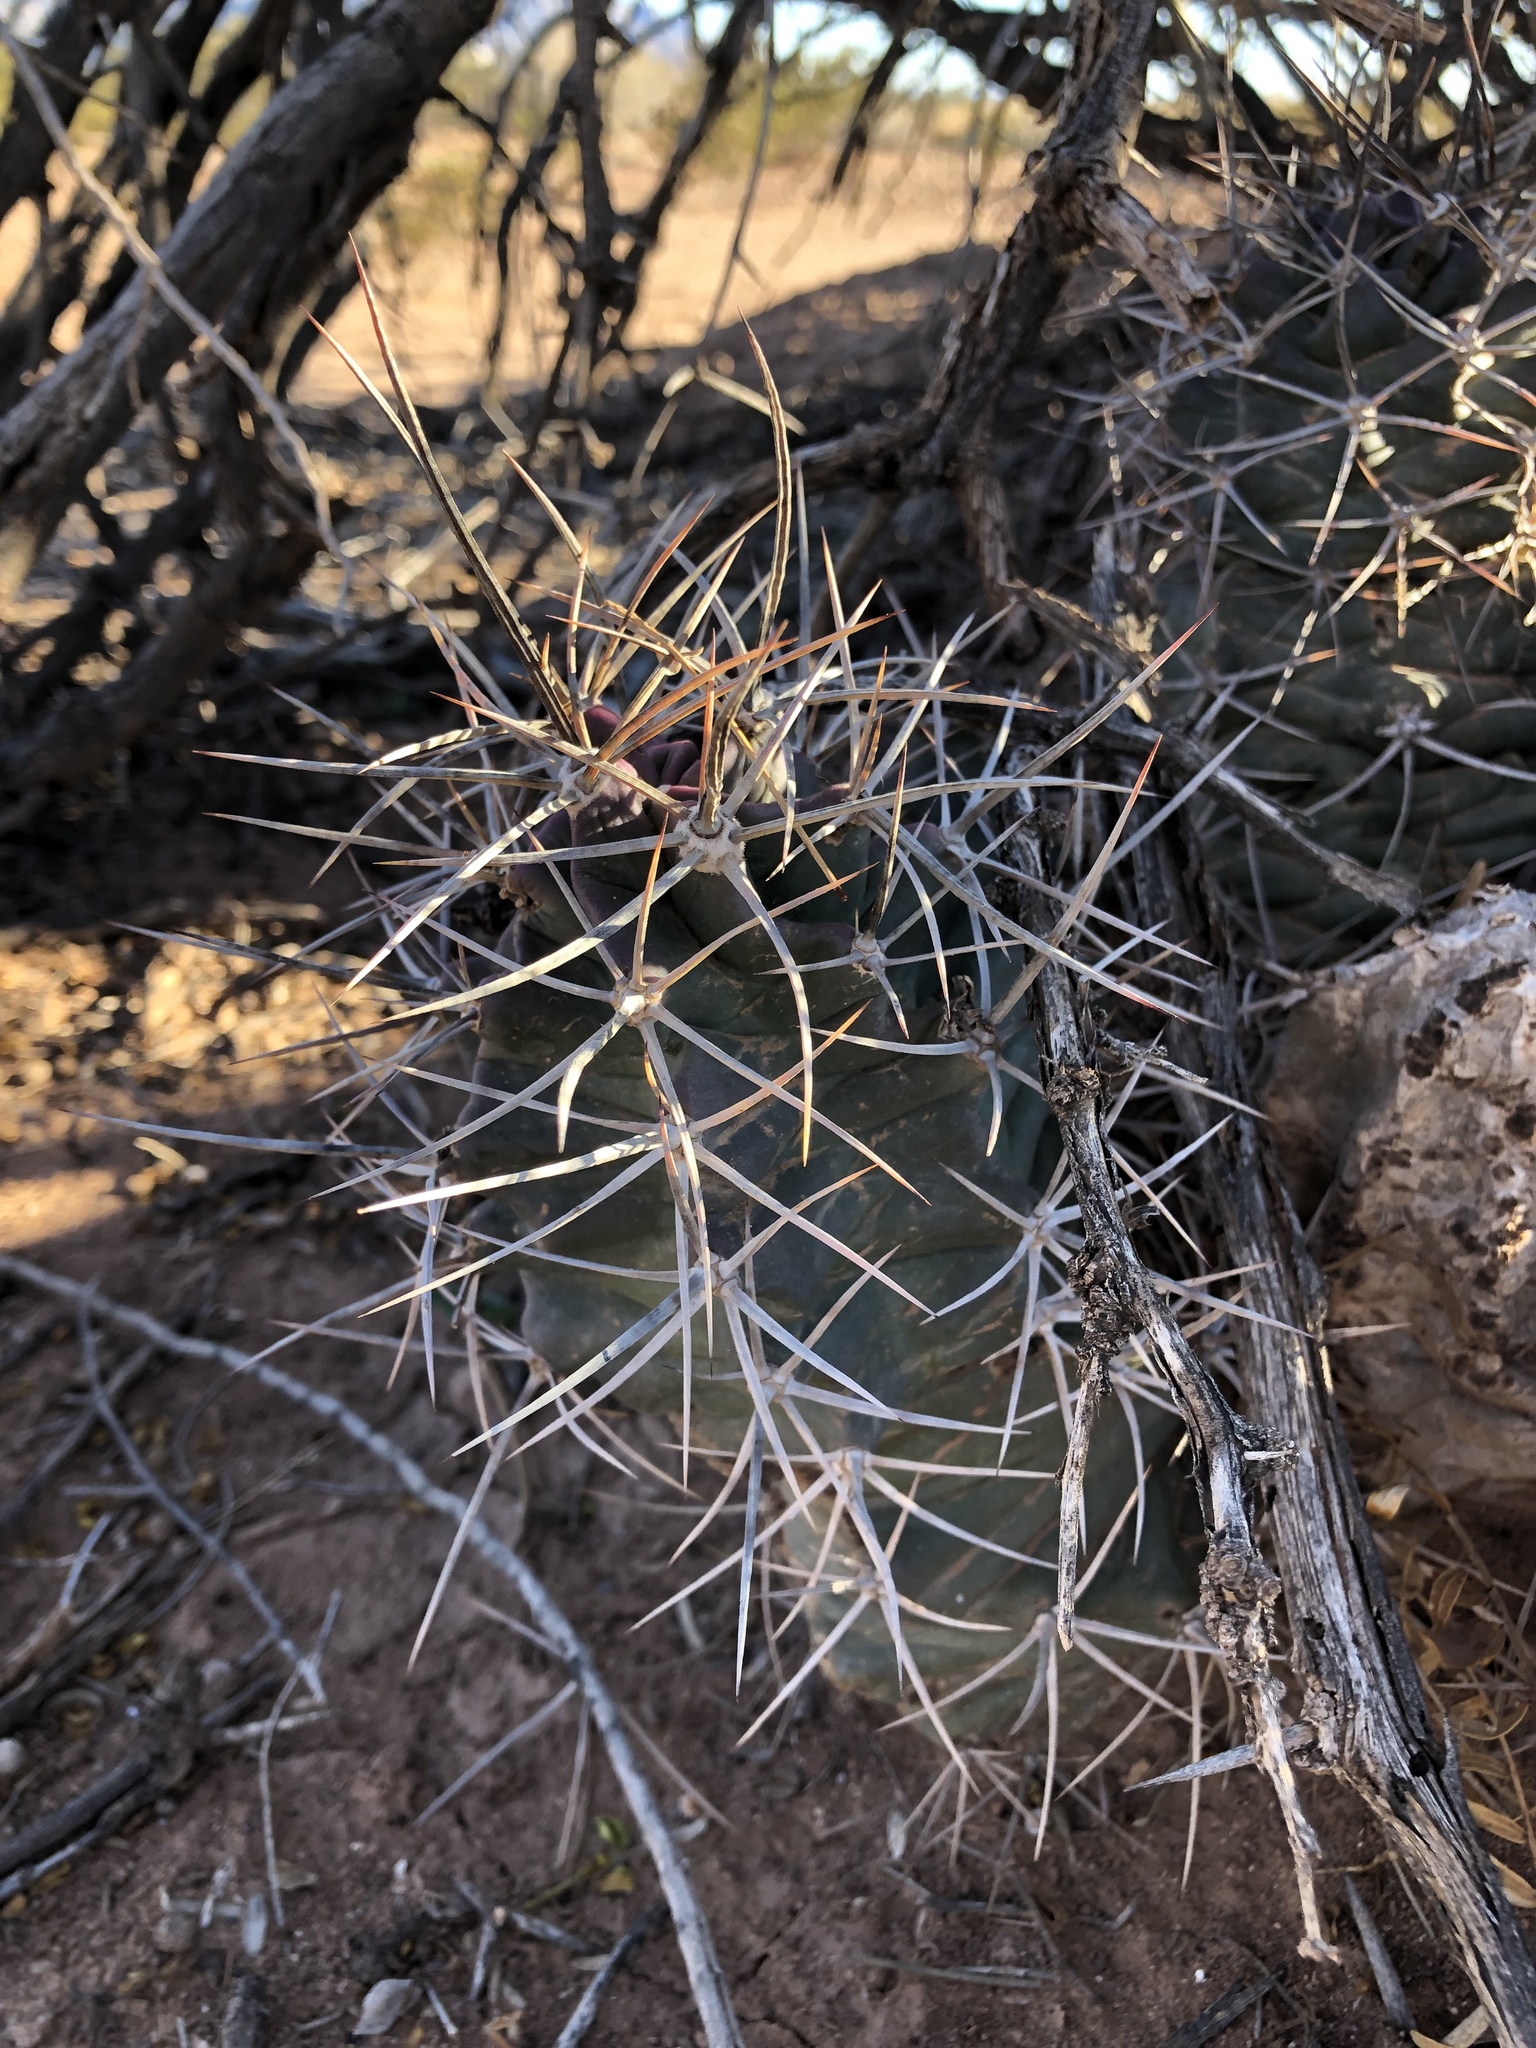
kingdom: Plantae
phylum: Tracheophyta
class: Magnoliopsida
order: Caryophyllales
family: Cactaceae
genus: Echinocereus
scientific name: Echinocereus triglochidiatus
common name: Claretcup hedgehog
